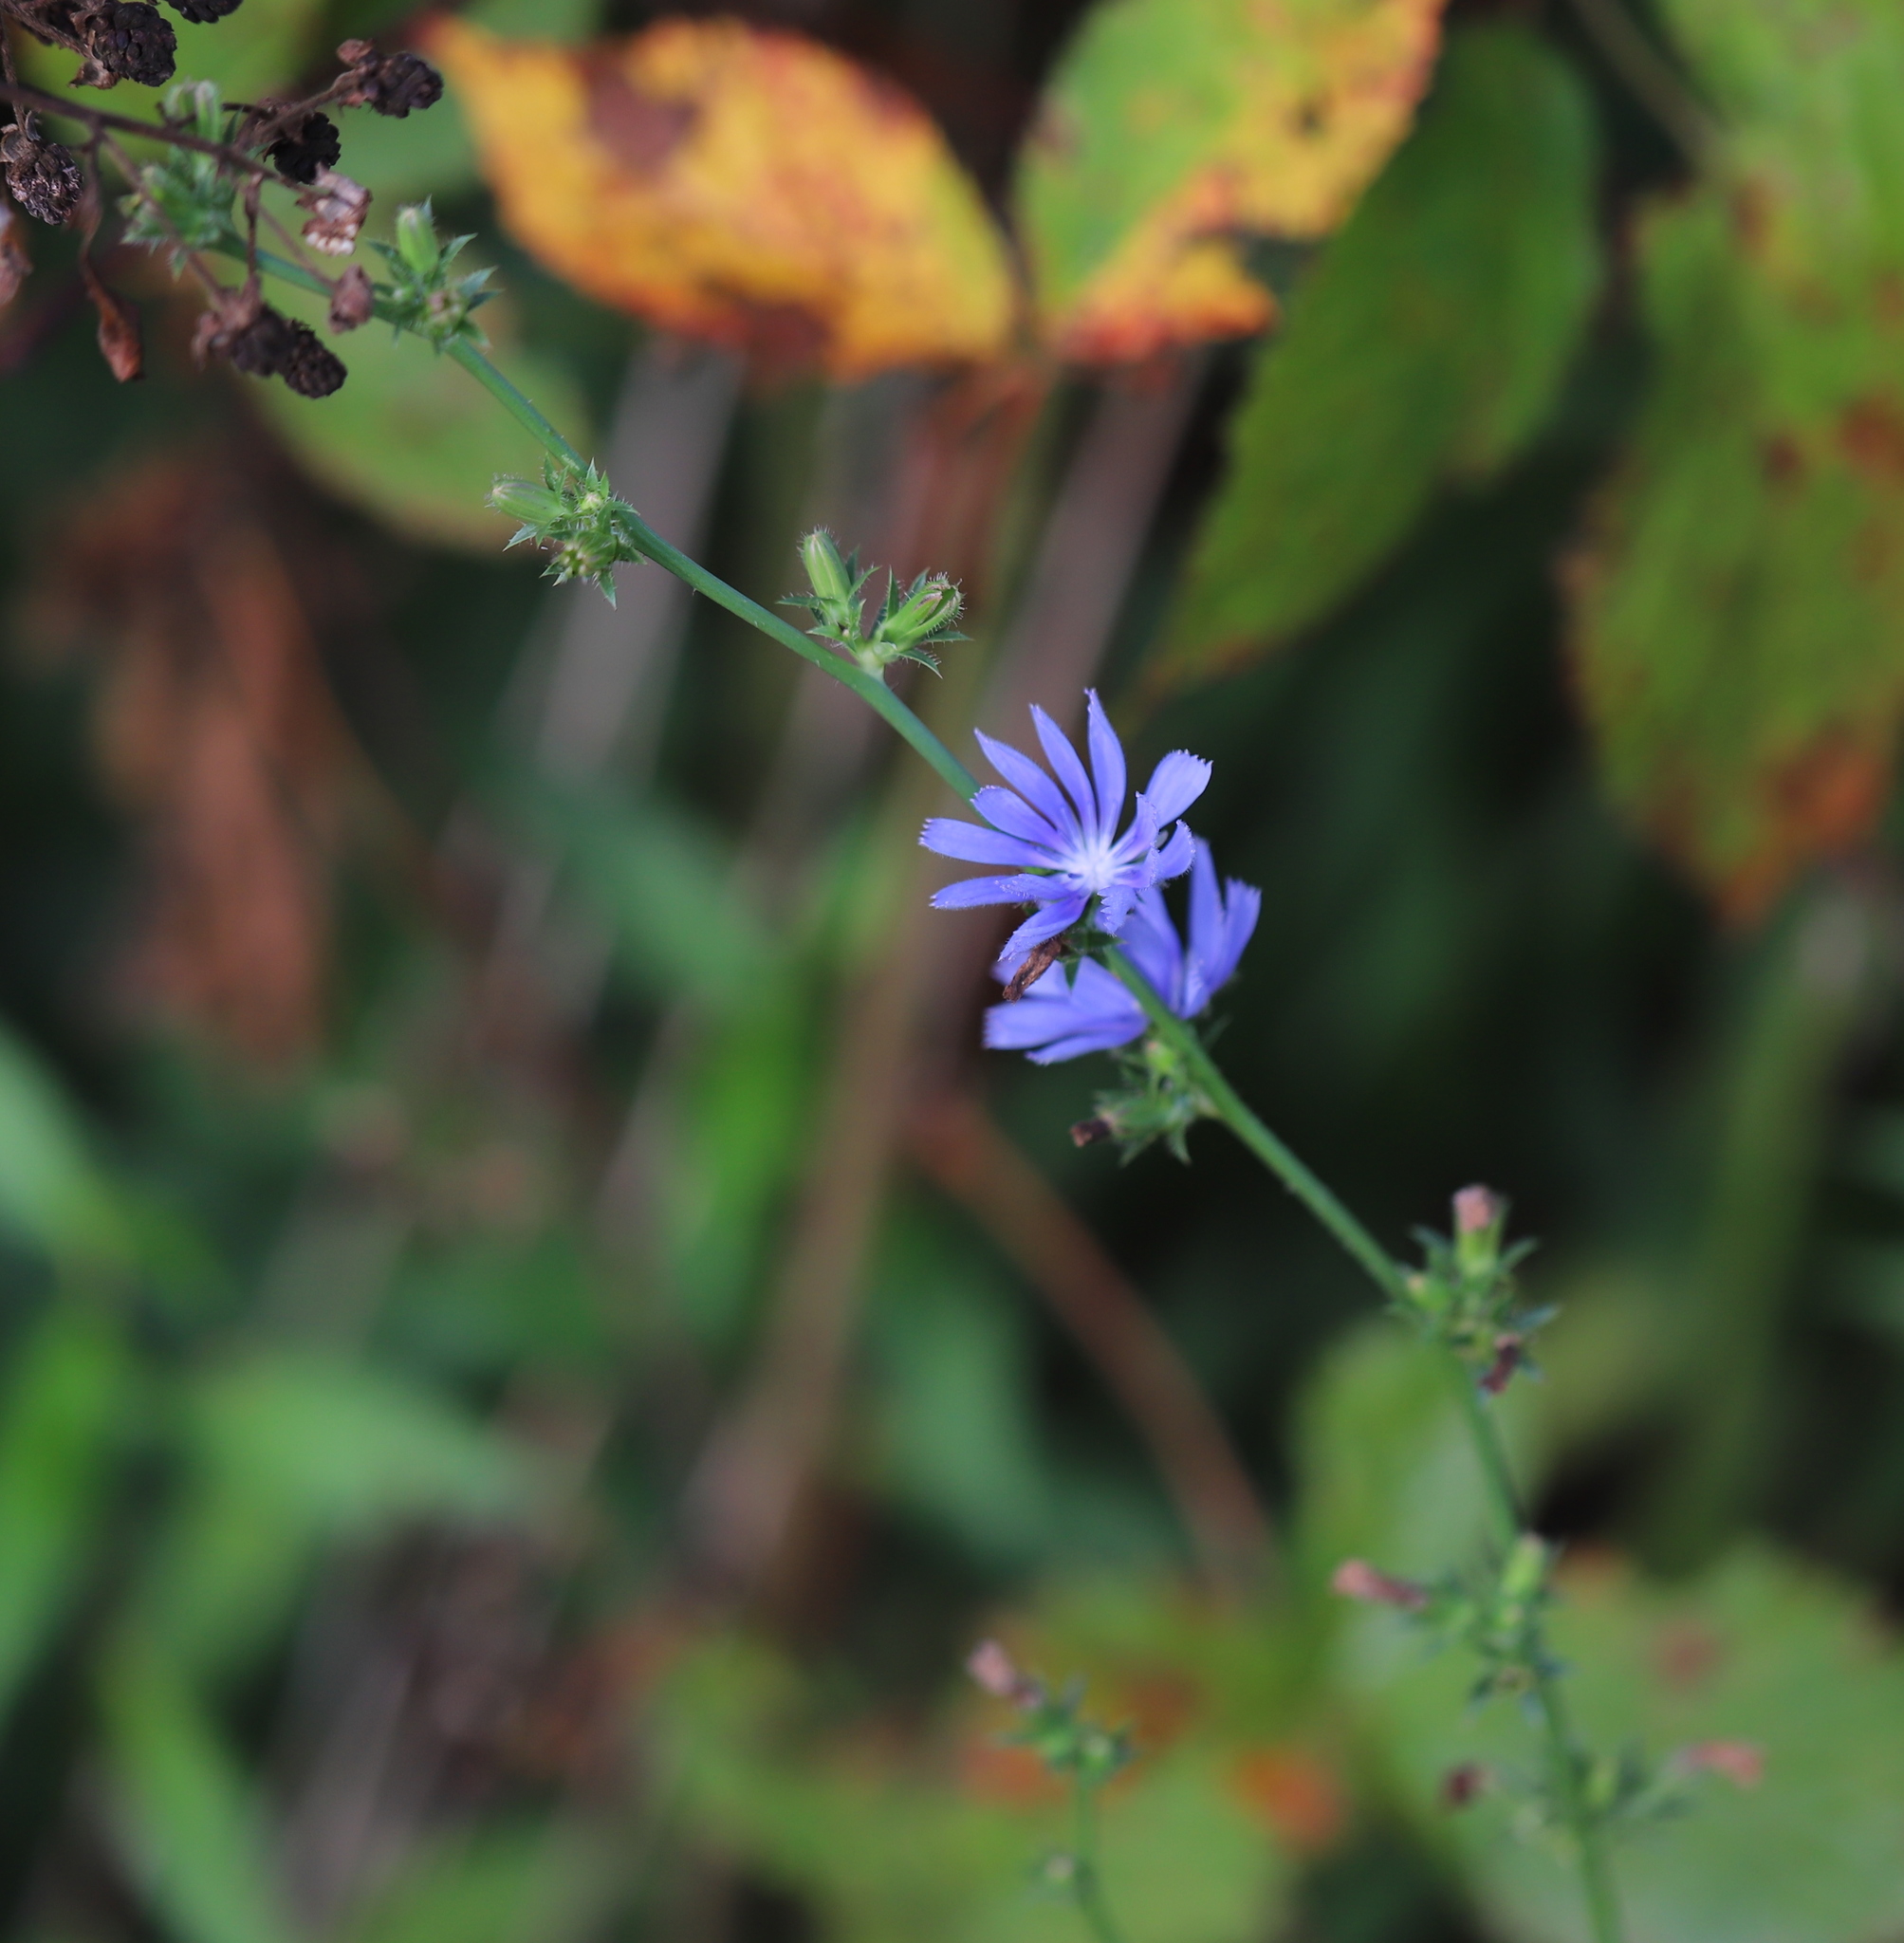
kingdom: Plantae
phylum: Tracheophyta
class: Magnoliopsida
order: Asterales
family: Asteraceae
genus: Cichorium
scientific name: Cichorium intybus
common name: Chicory
